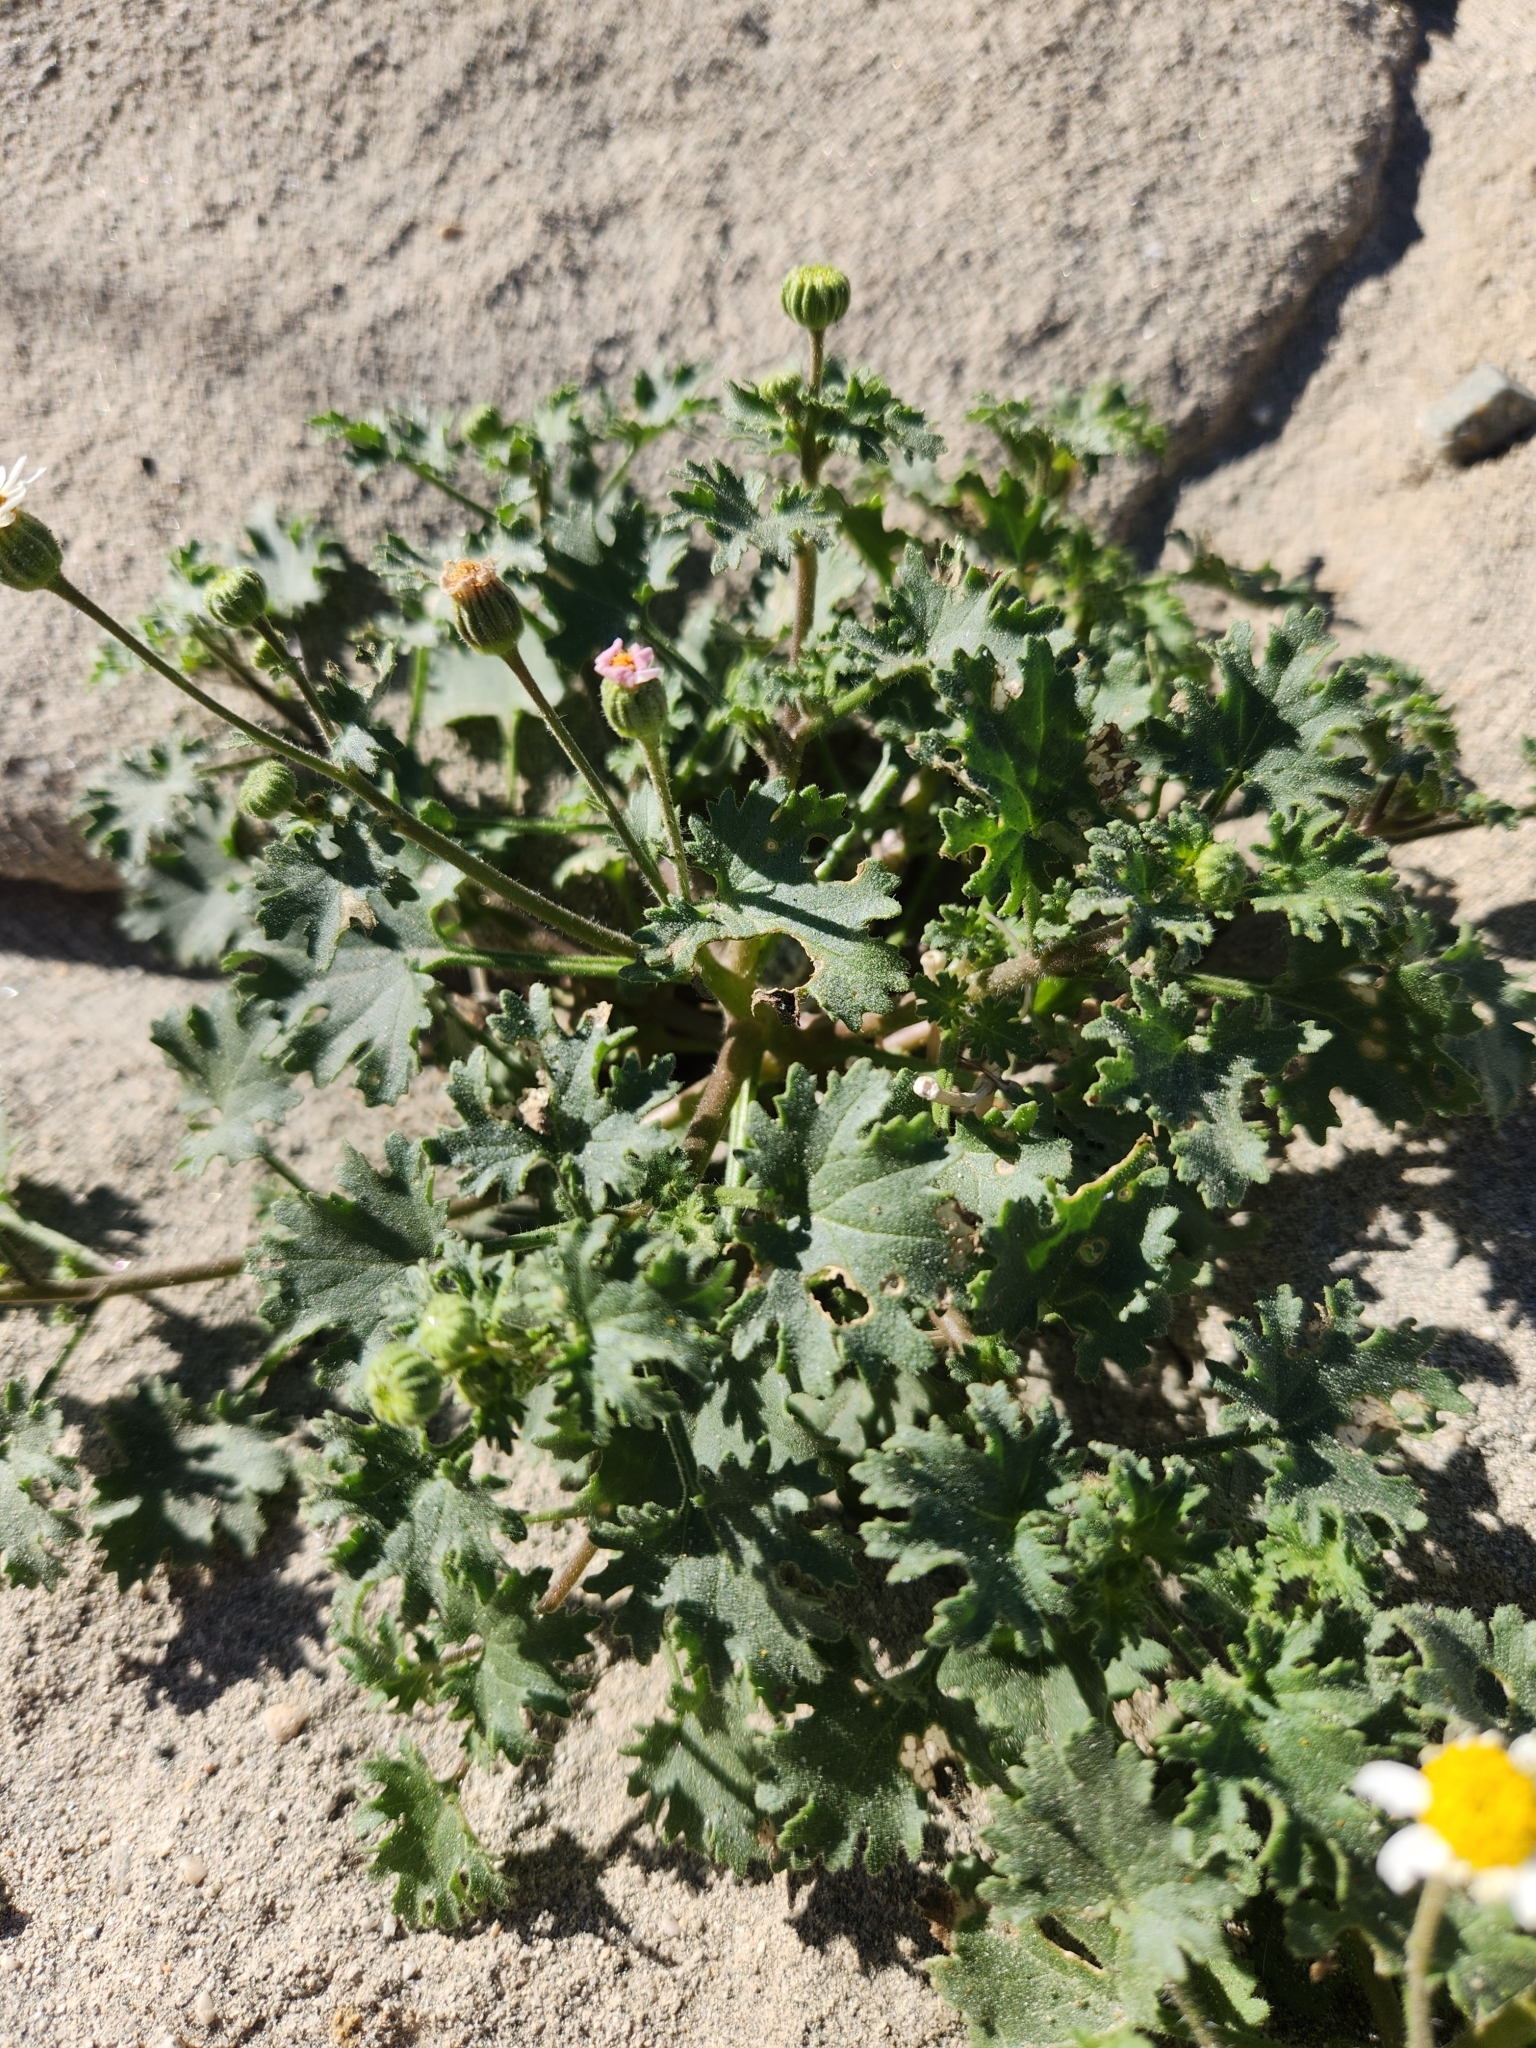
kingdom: Plantae
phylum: Tracheophyta
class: Magnoliopsida
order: Asterales
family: Asteraceae
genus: Laphamia
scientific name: Laphamia emoryi
